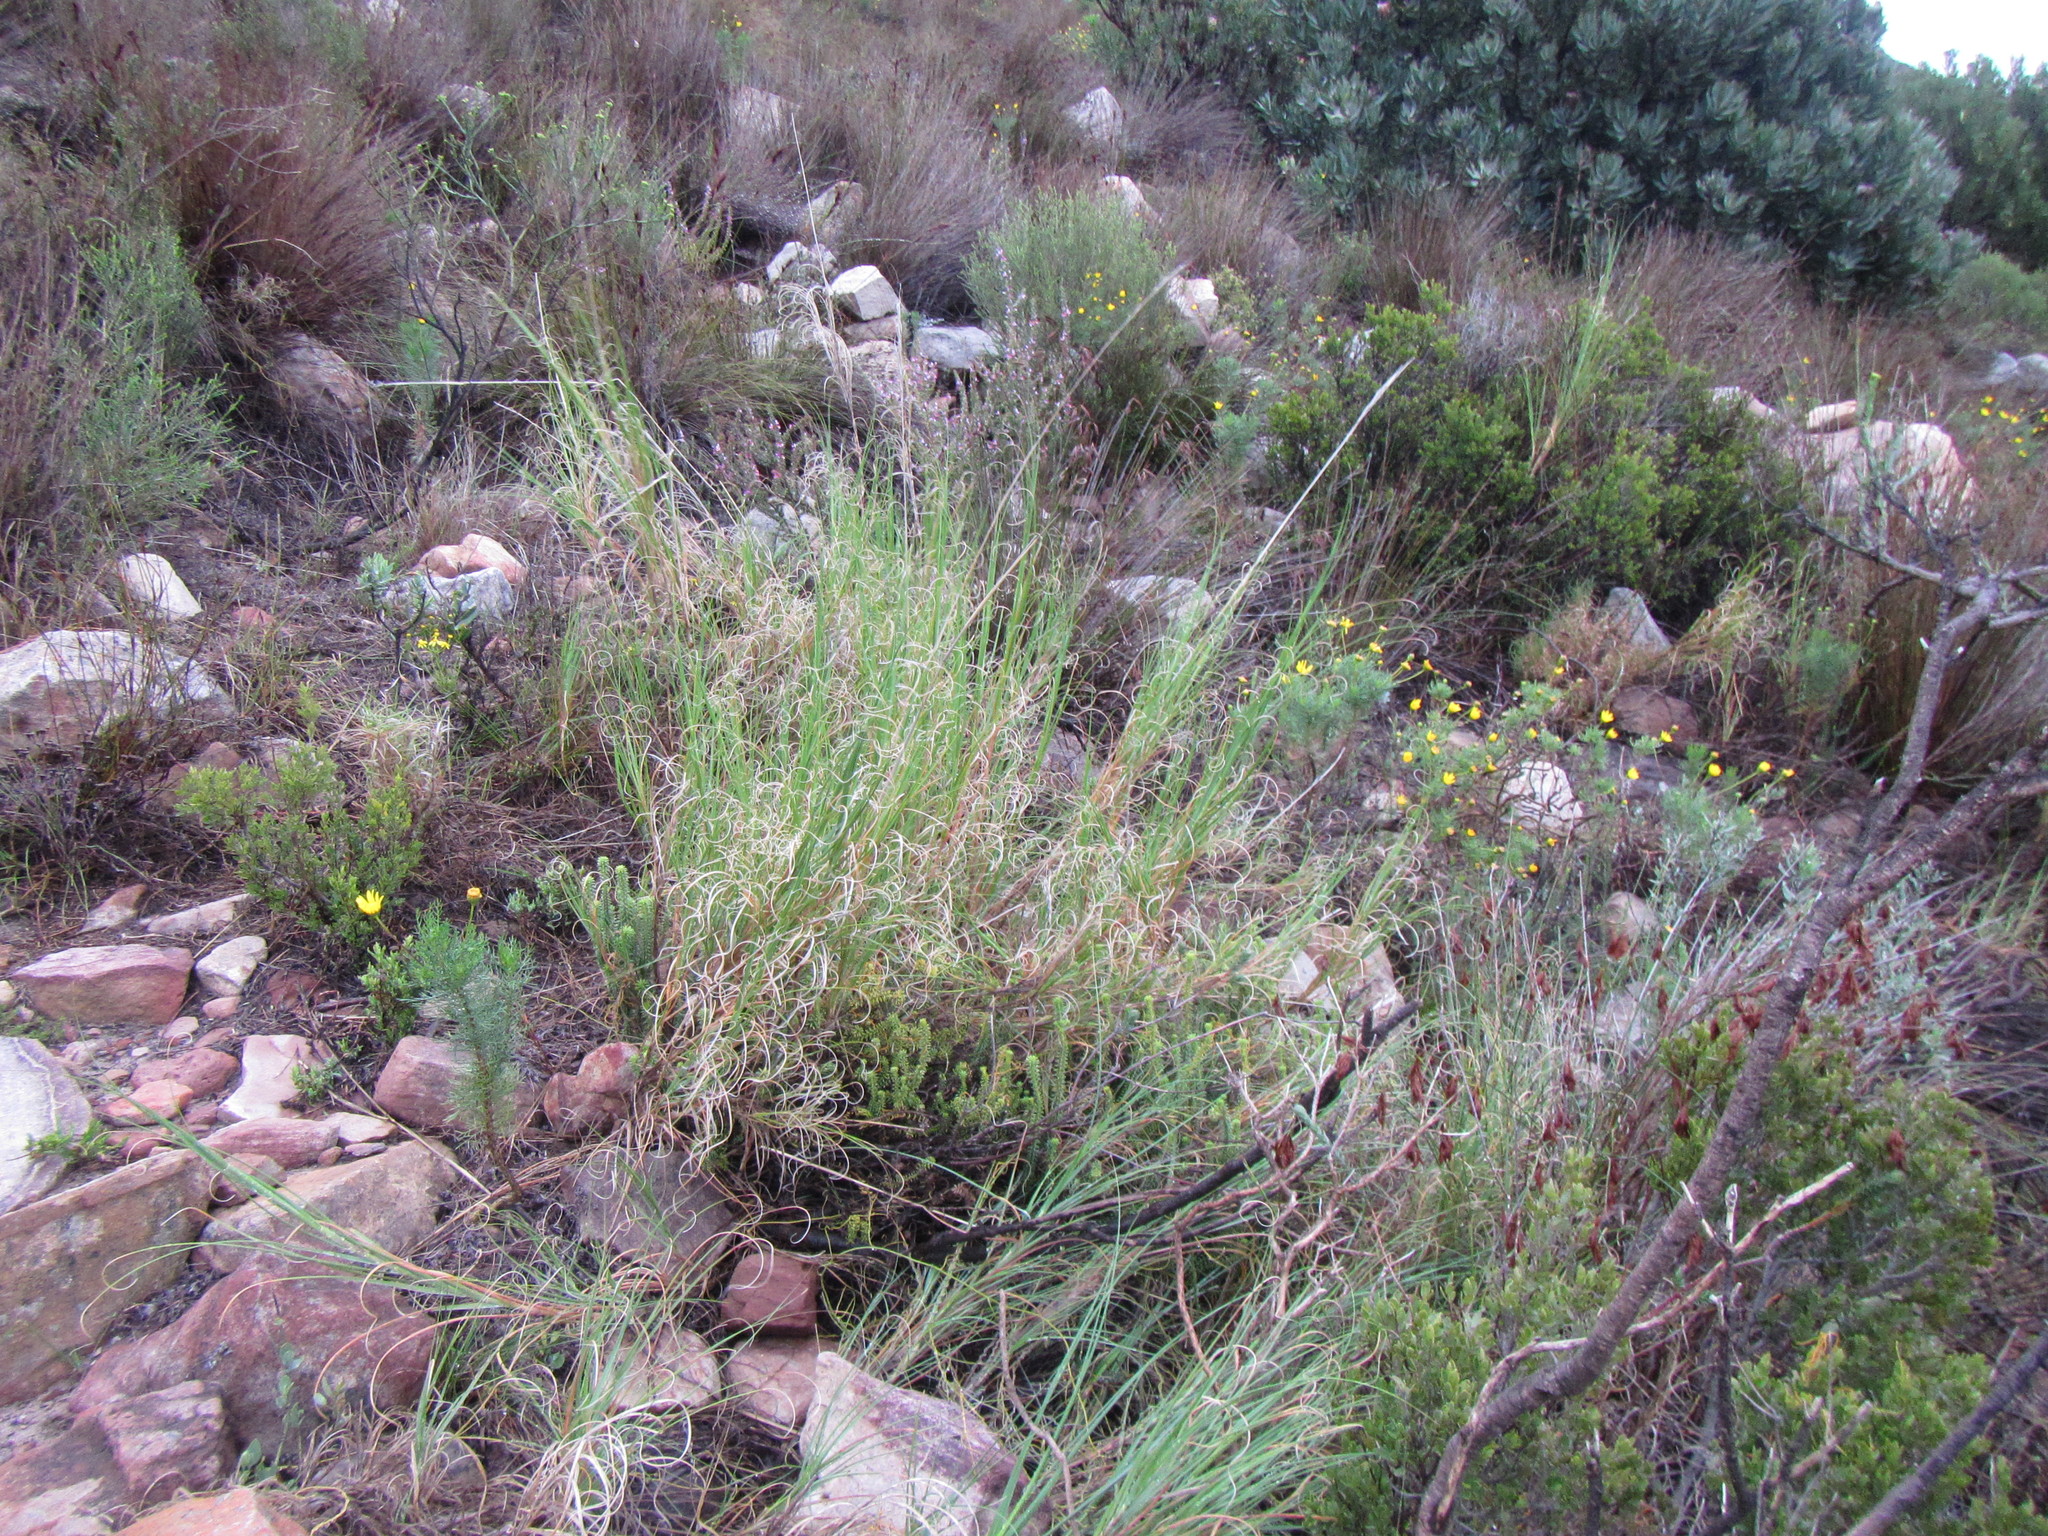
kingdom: Plantae
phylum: Tracheophyta
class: Liliopsida
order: Poales
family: Poaceae
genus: Pseudopentameris
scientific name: Pseudopentameris macrantha
